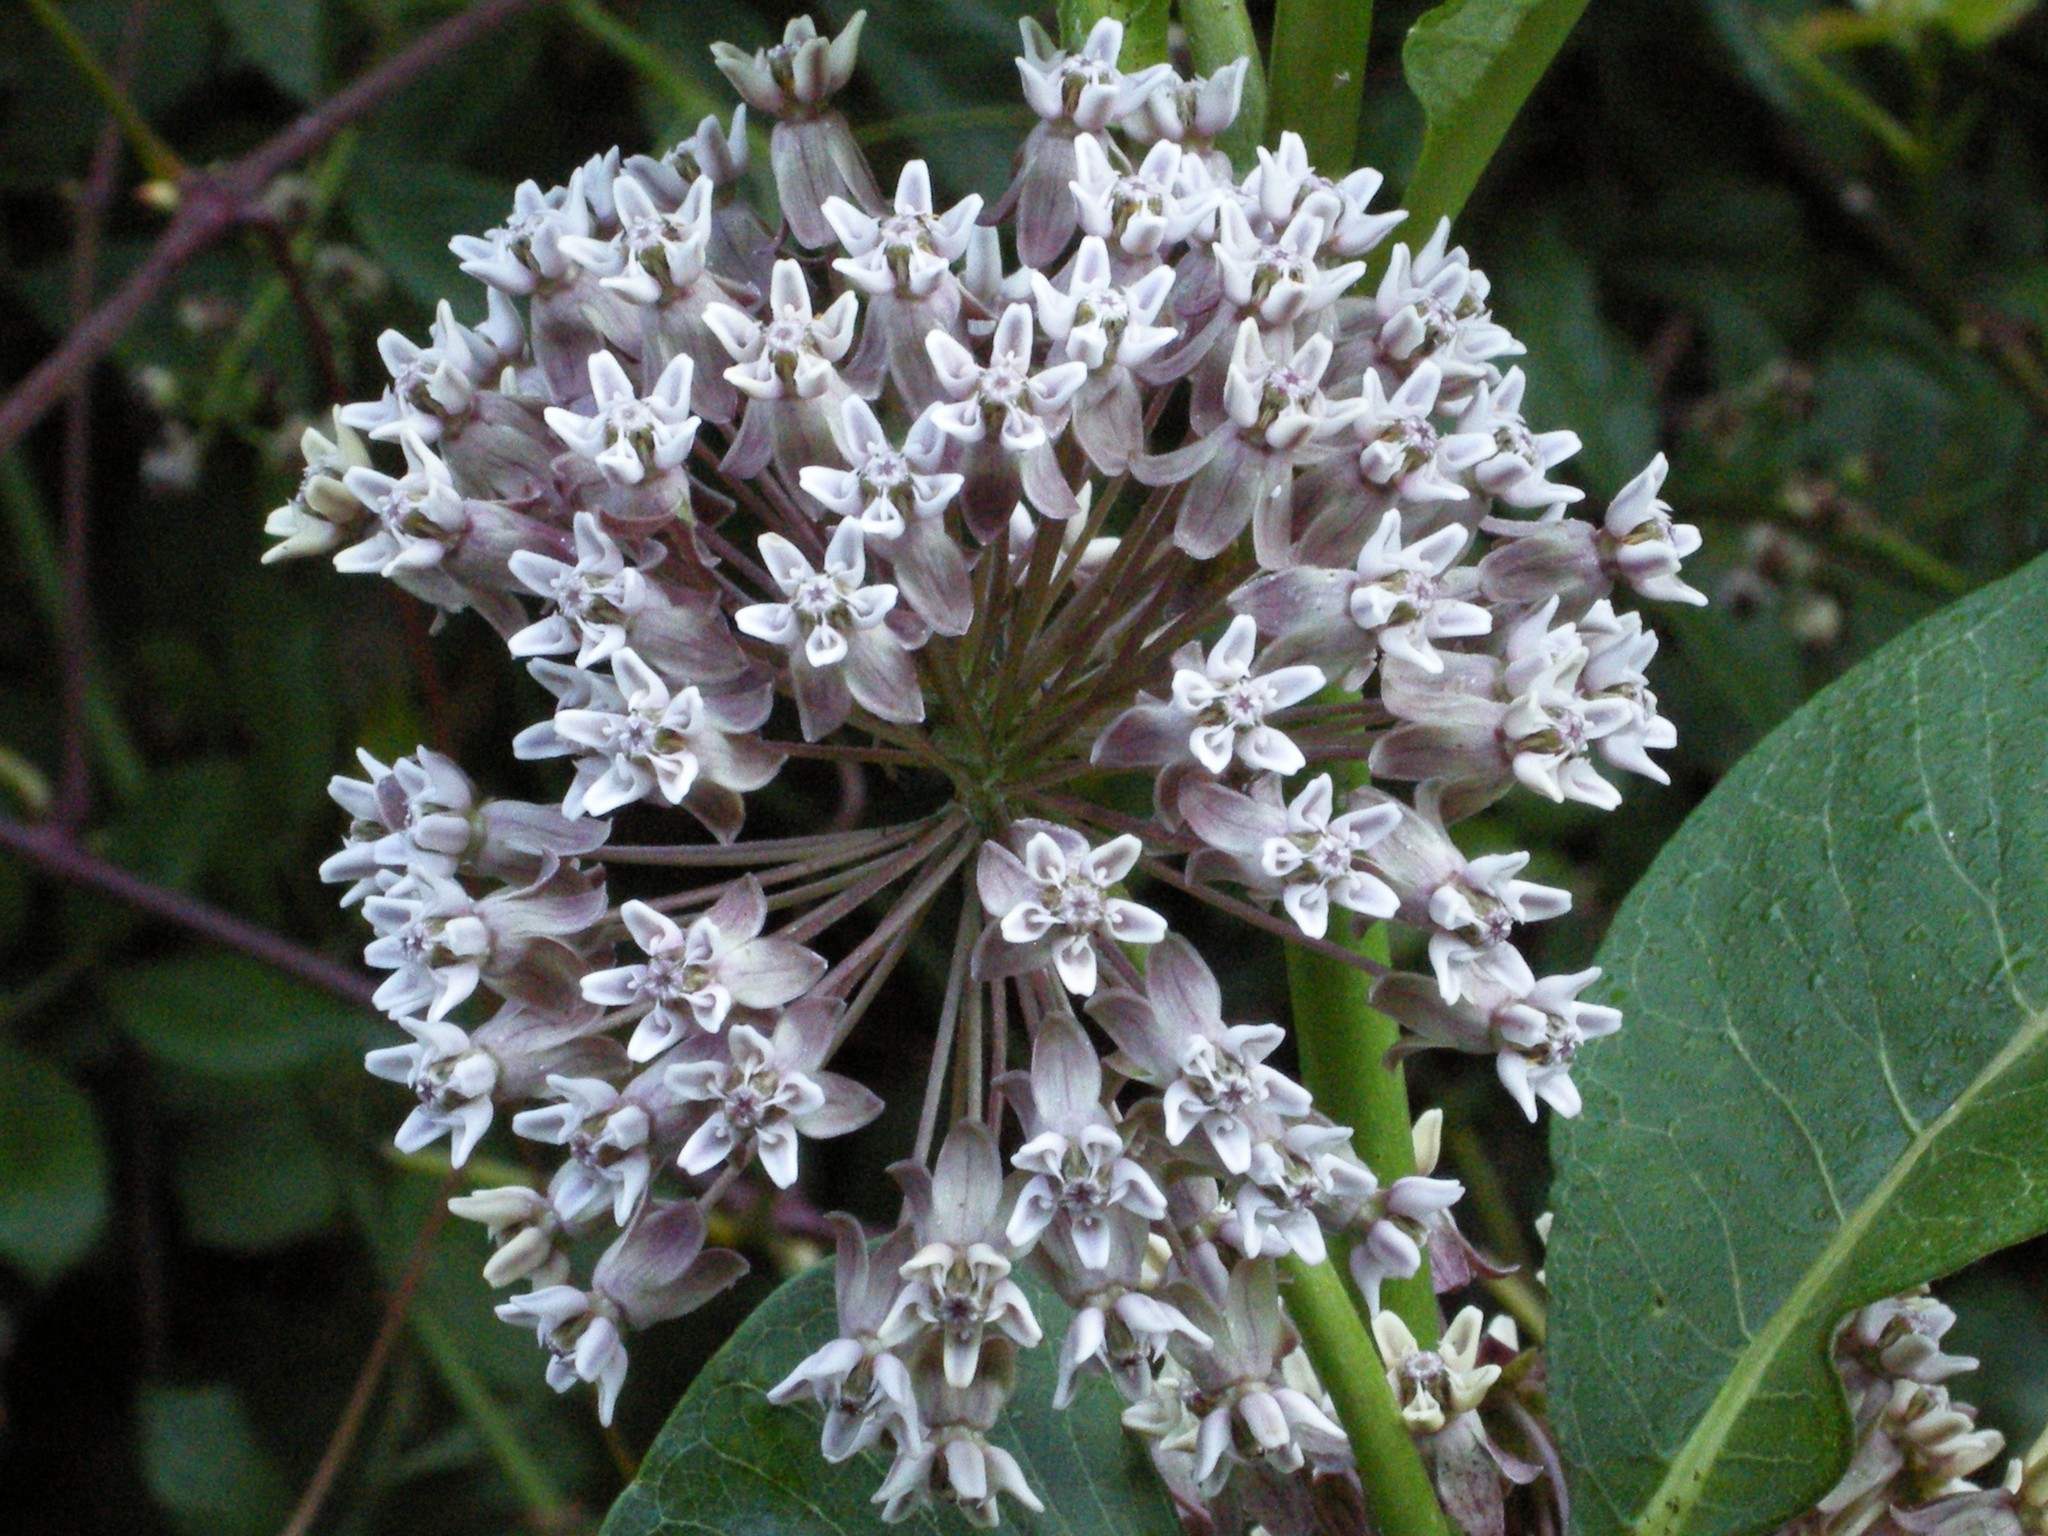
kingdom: Plantae
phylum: Tracheophyta
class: Magnoliopsida
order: Gentianales
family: Apocynaceae
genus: Asclepias
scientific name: Asclepias syriaca
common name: Common milkweed
